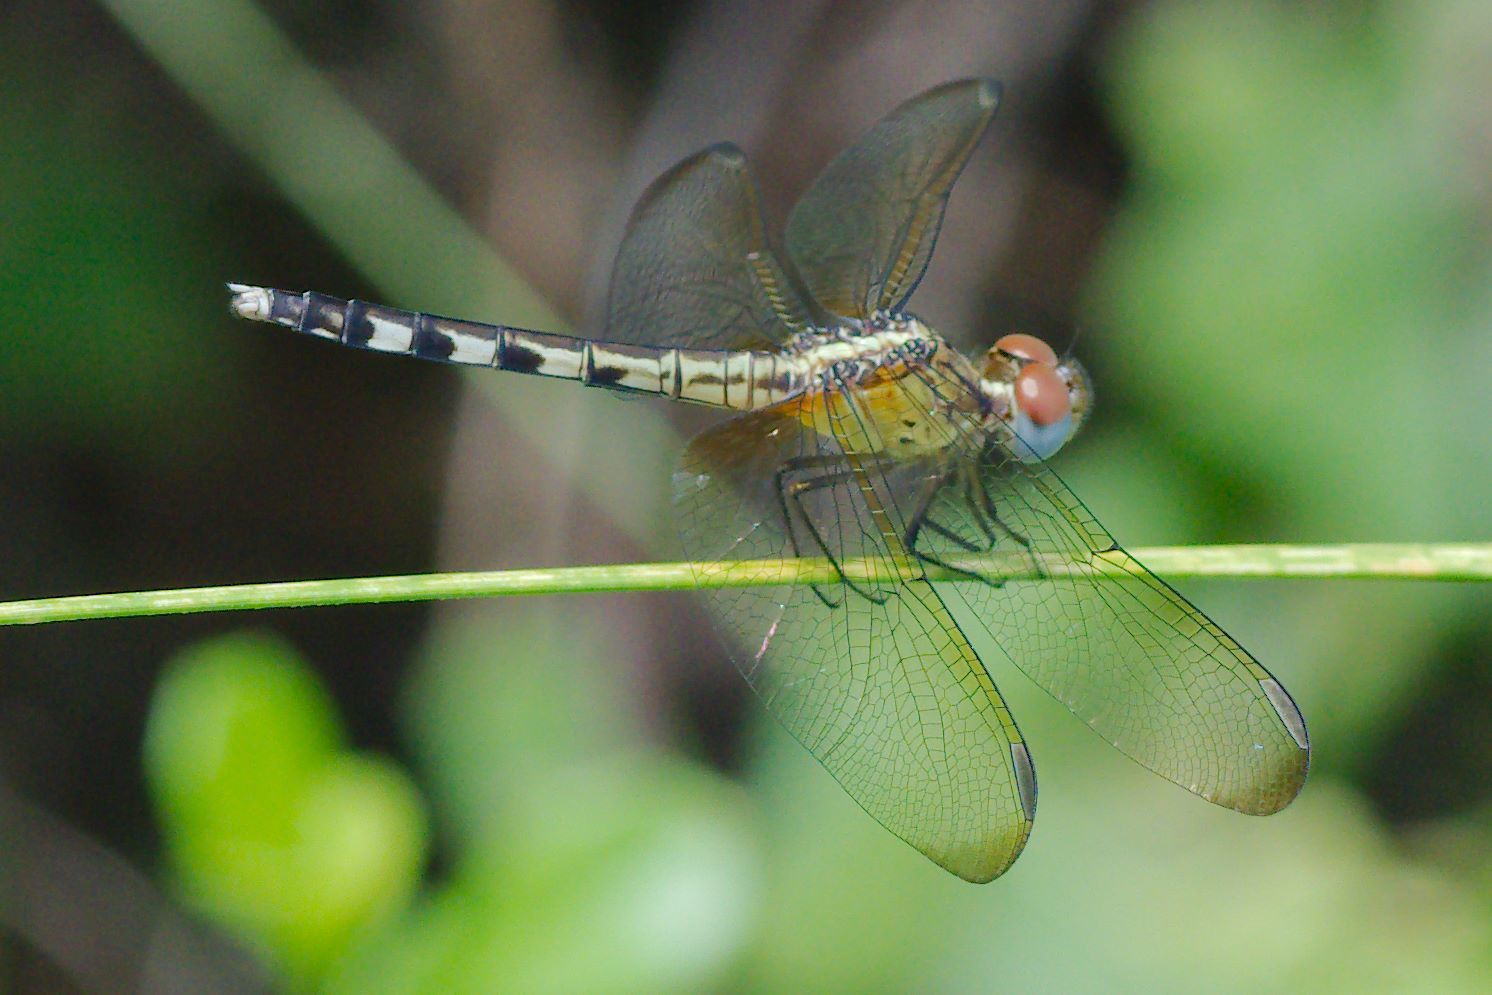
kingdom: Animalia
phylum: Arthropoda
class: Insecta
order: Odonata
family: Libellulidae
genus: Erythrodiplax
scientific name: Erythrodiplax umbrata
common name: Band-winged dragonlet
